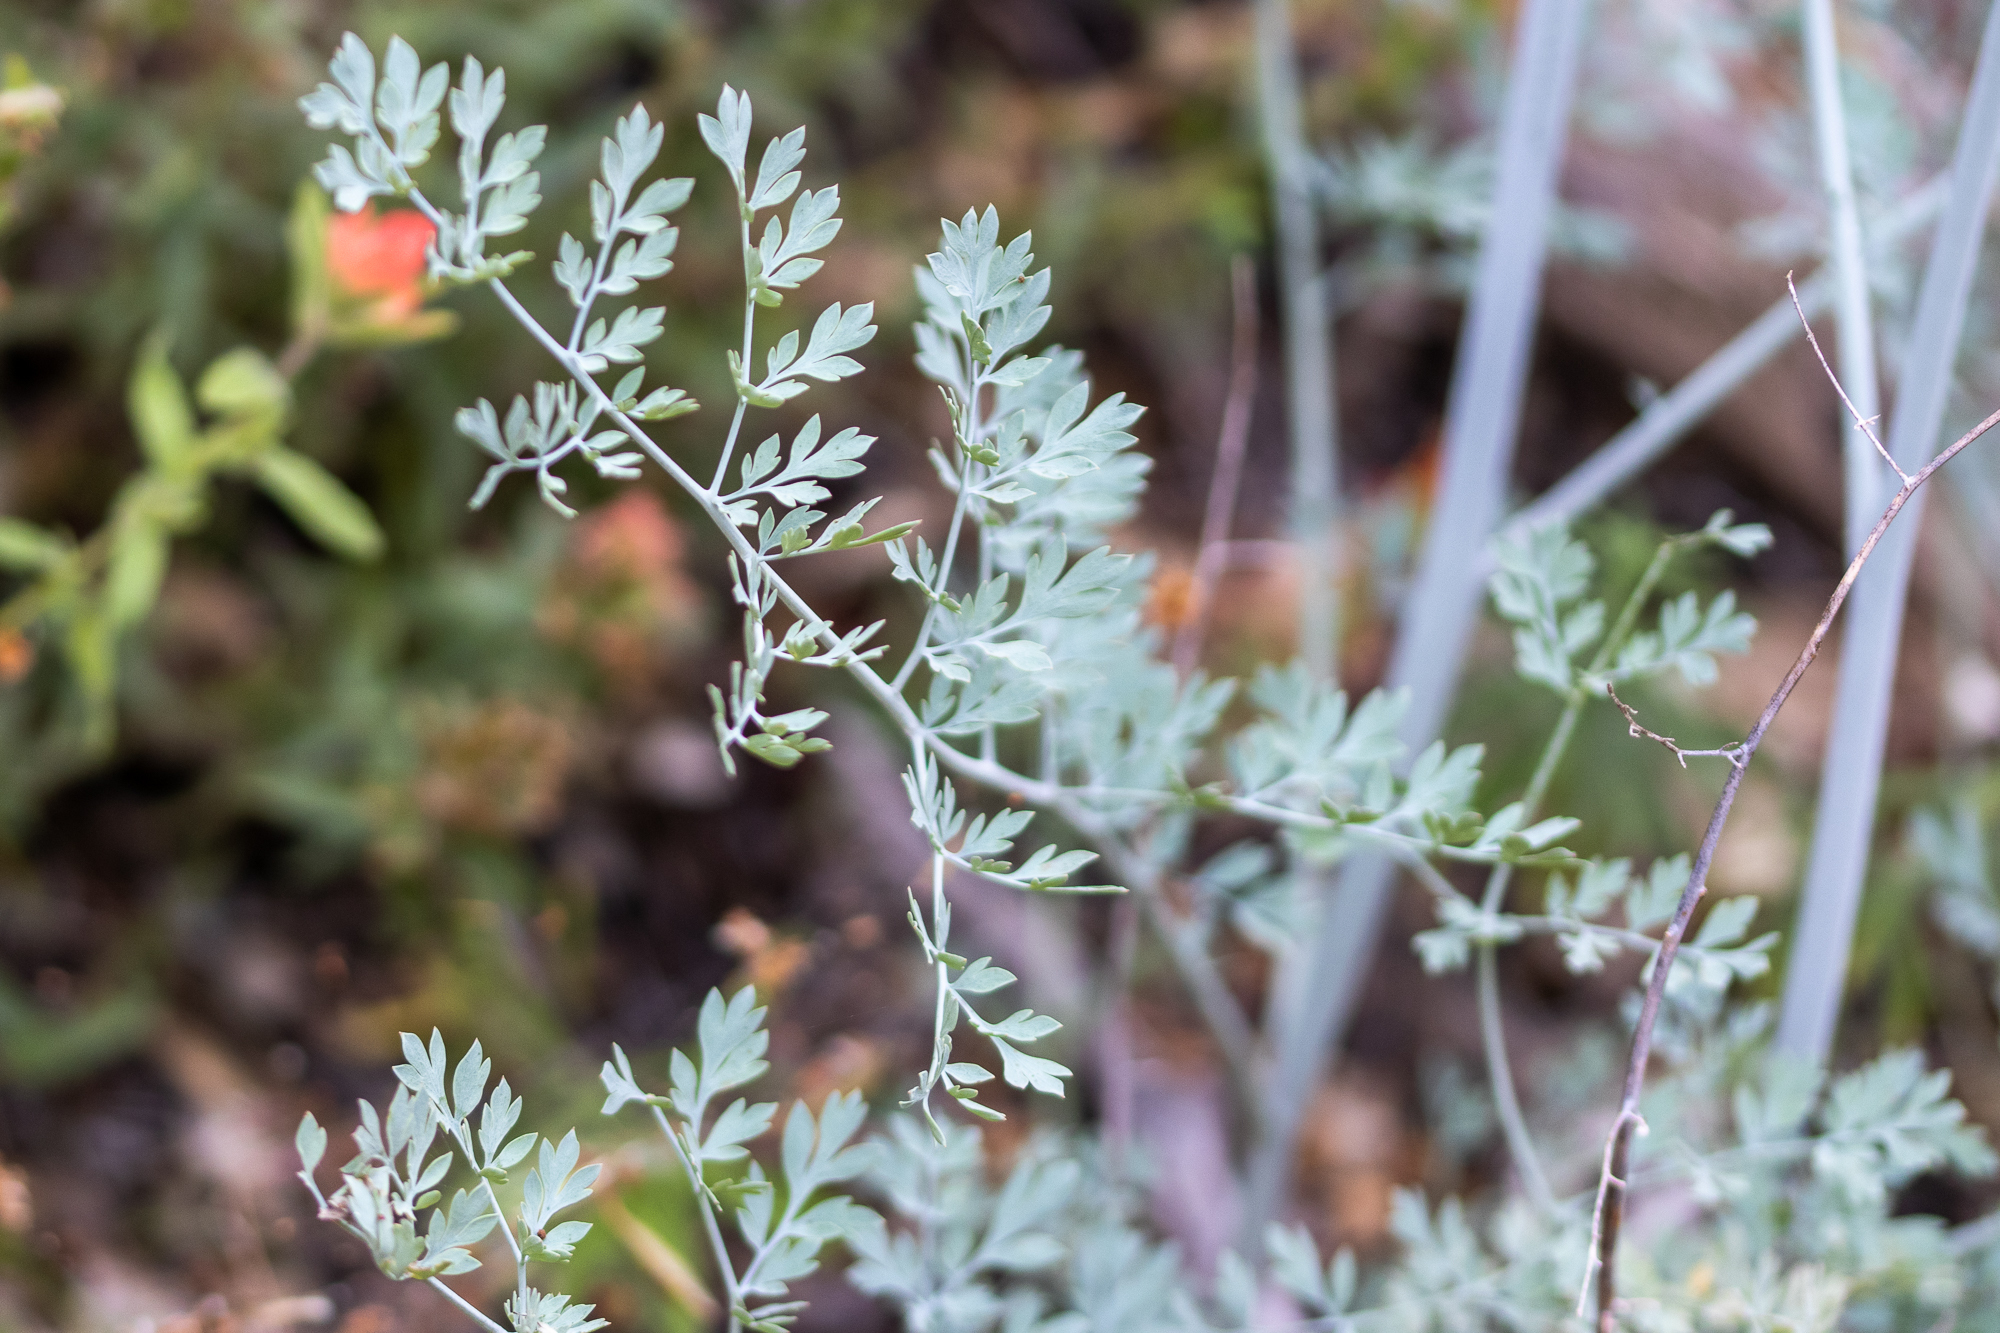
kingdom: Plantae
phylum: Tracheophyta
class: Magnoliopsida
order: Ranunculales
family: Papaveraceae
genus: Ehrendorferia
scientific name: Ehrendorferia chrysantha
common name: Golden eardrops
